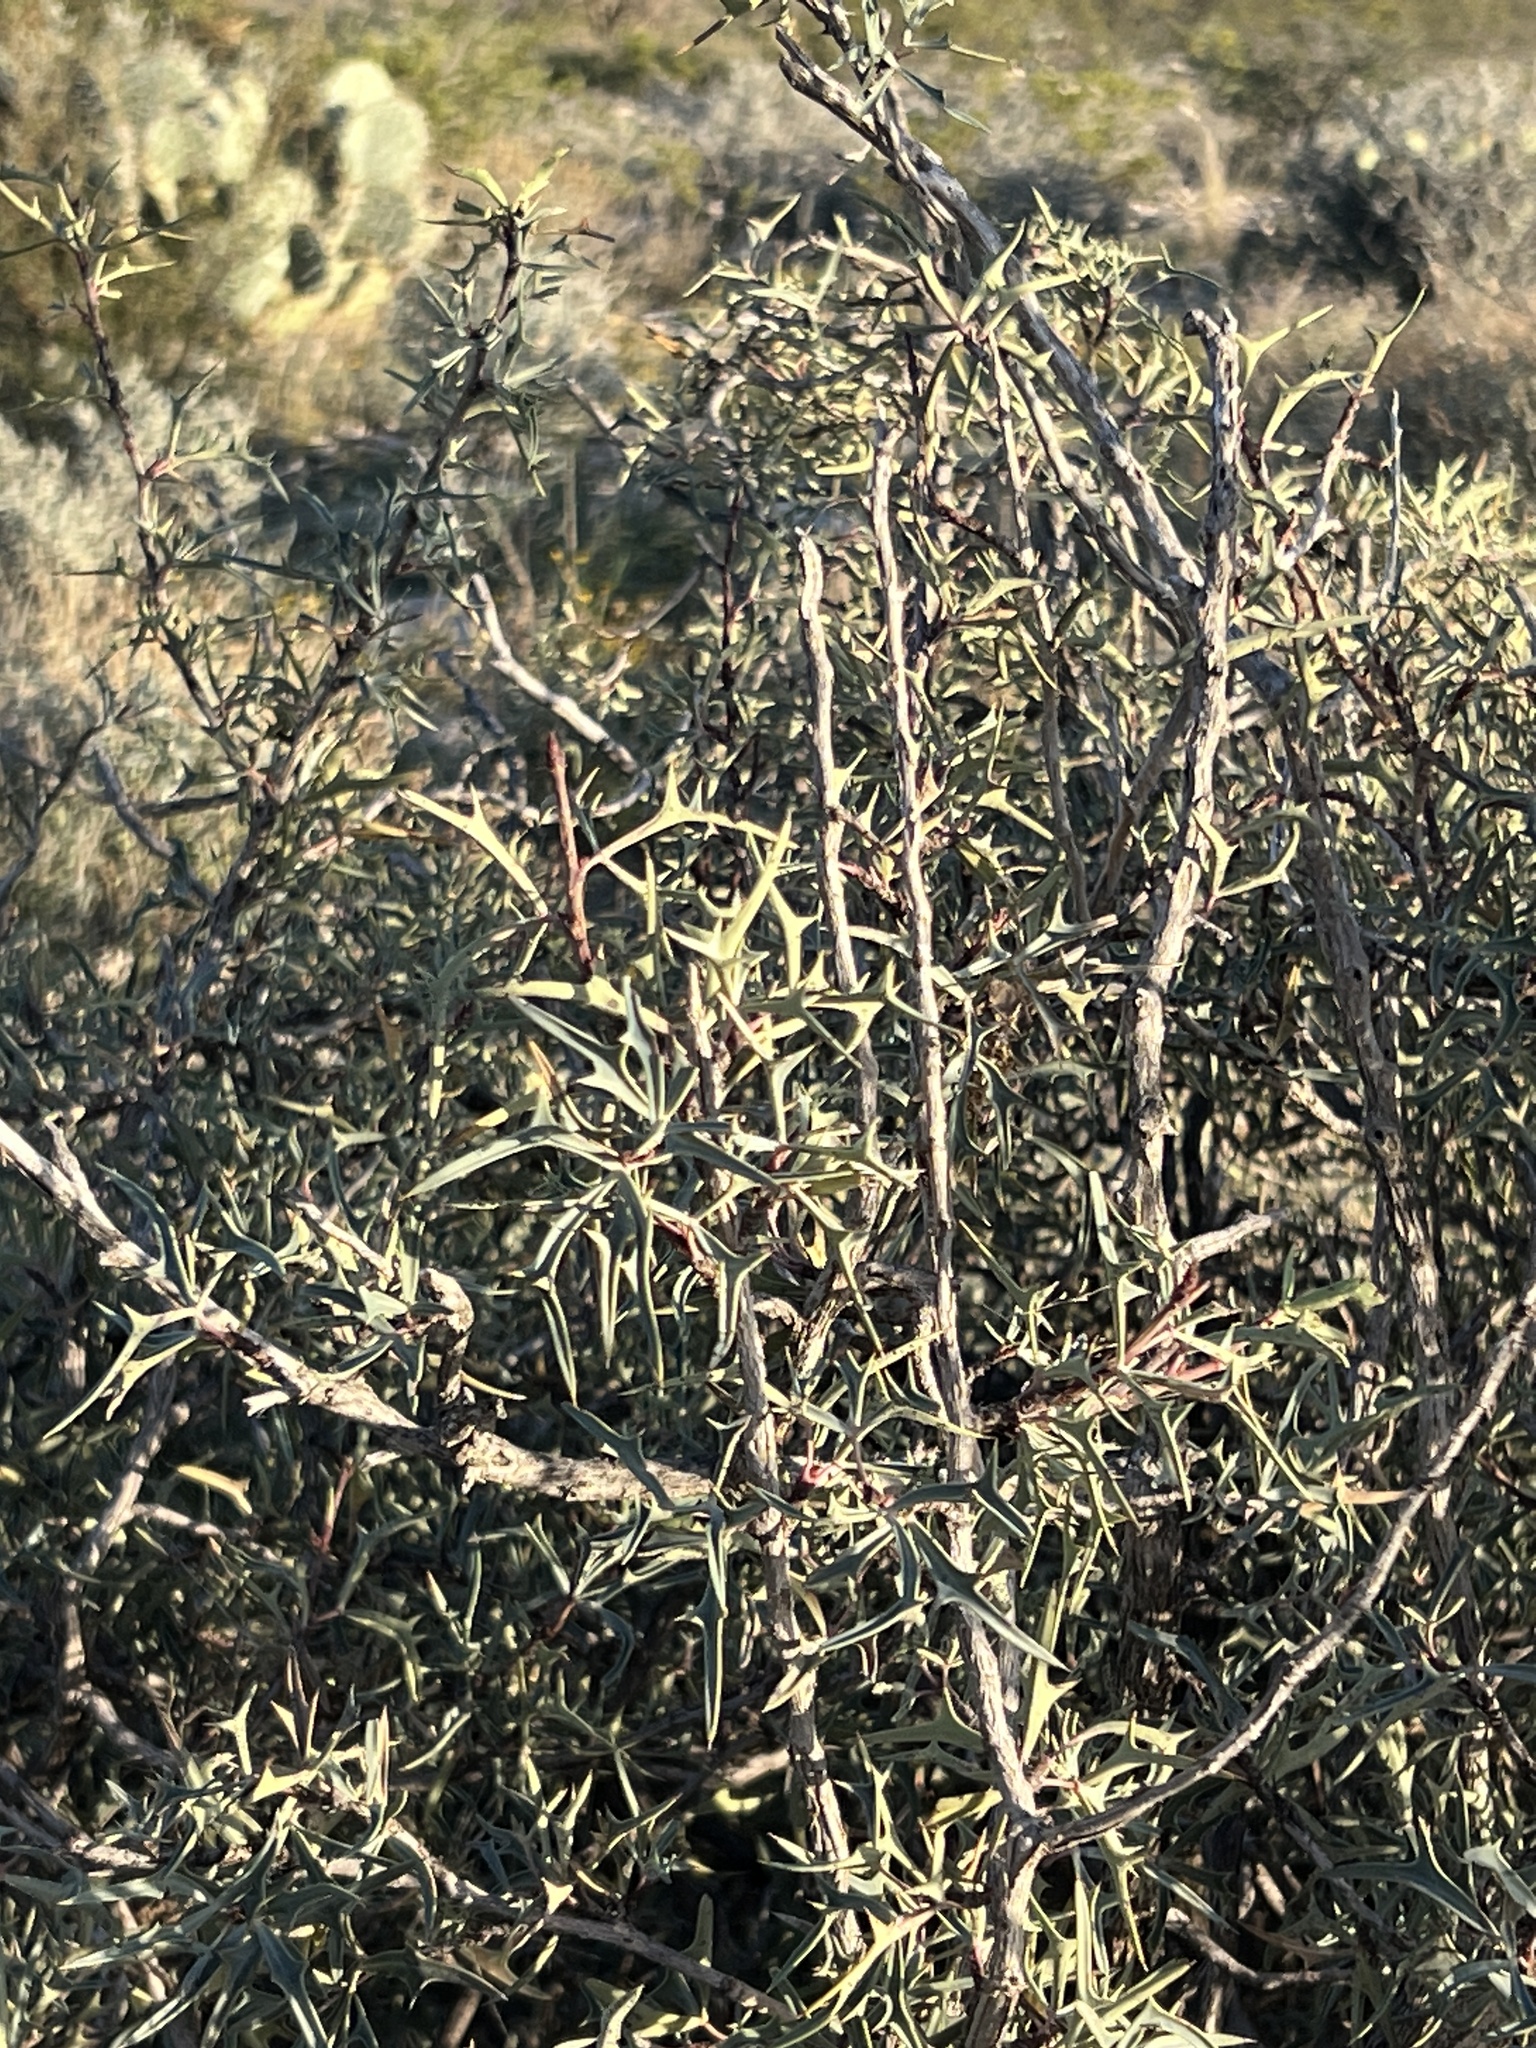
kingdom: Plantae
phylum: Tracheophyta
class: Magnoliopsida
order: Ranunculales
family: Berberidaceae
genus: Alloberberis
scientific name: Alloberberis trifoliolata
